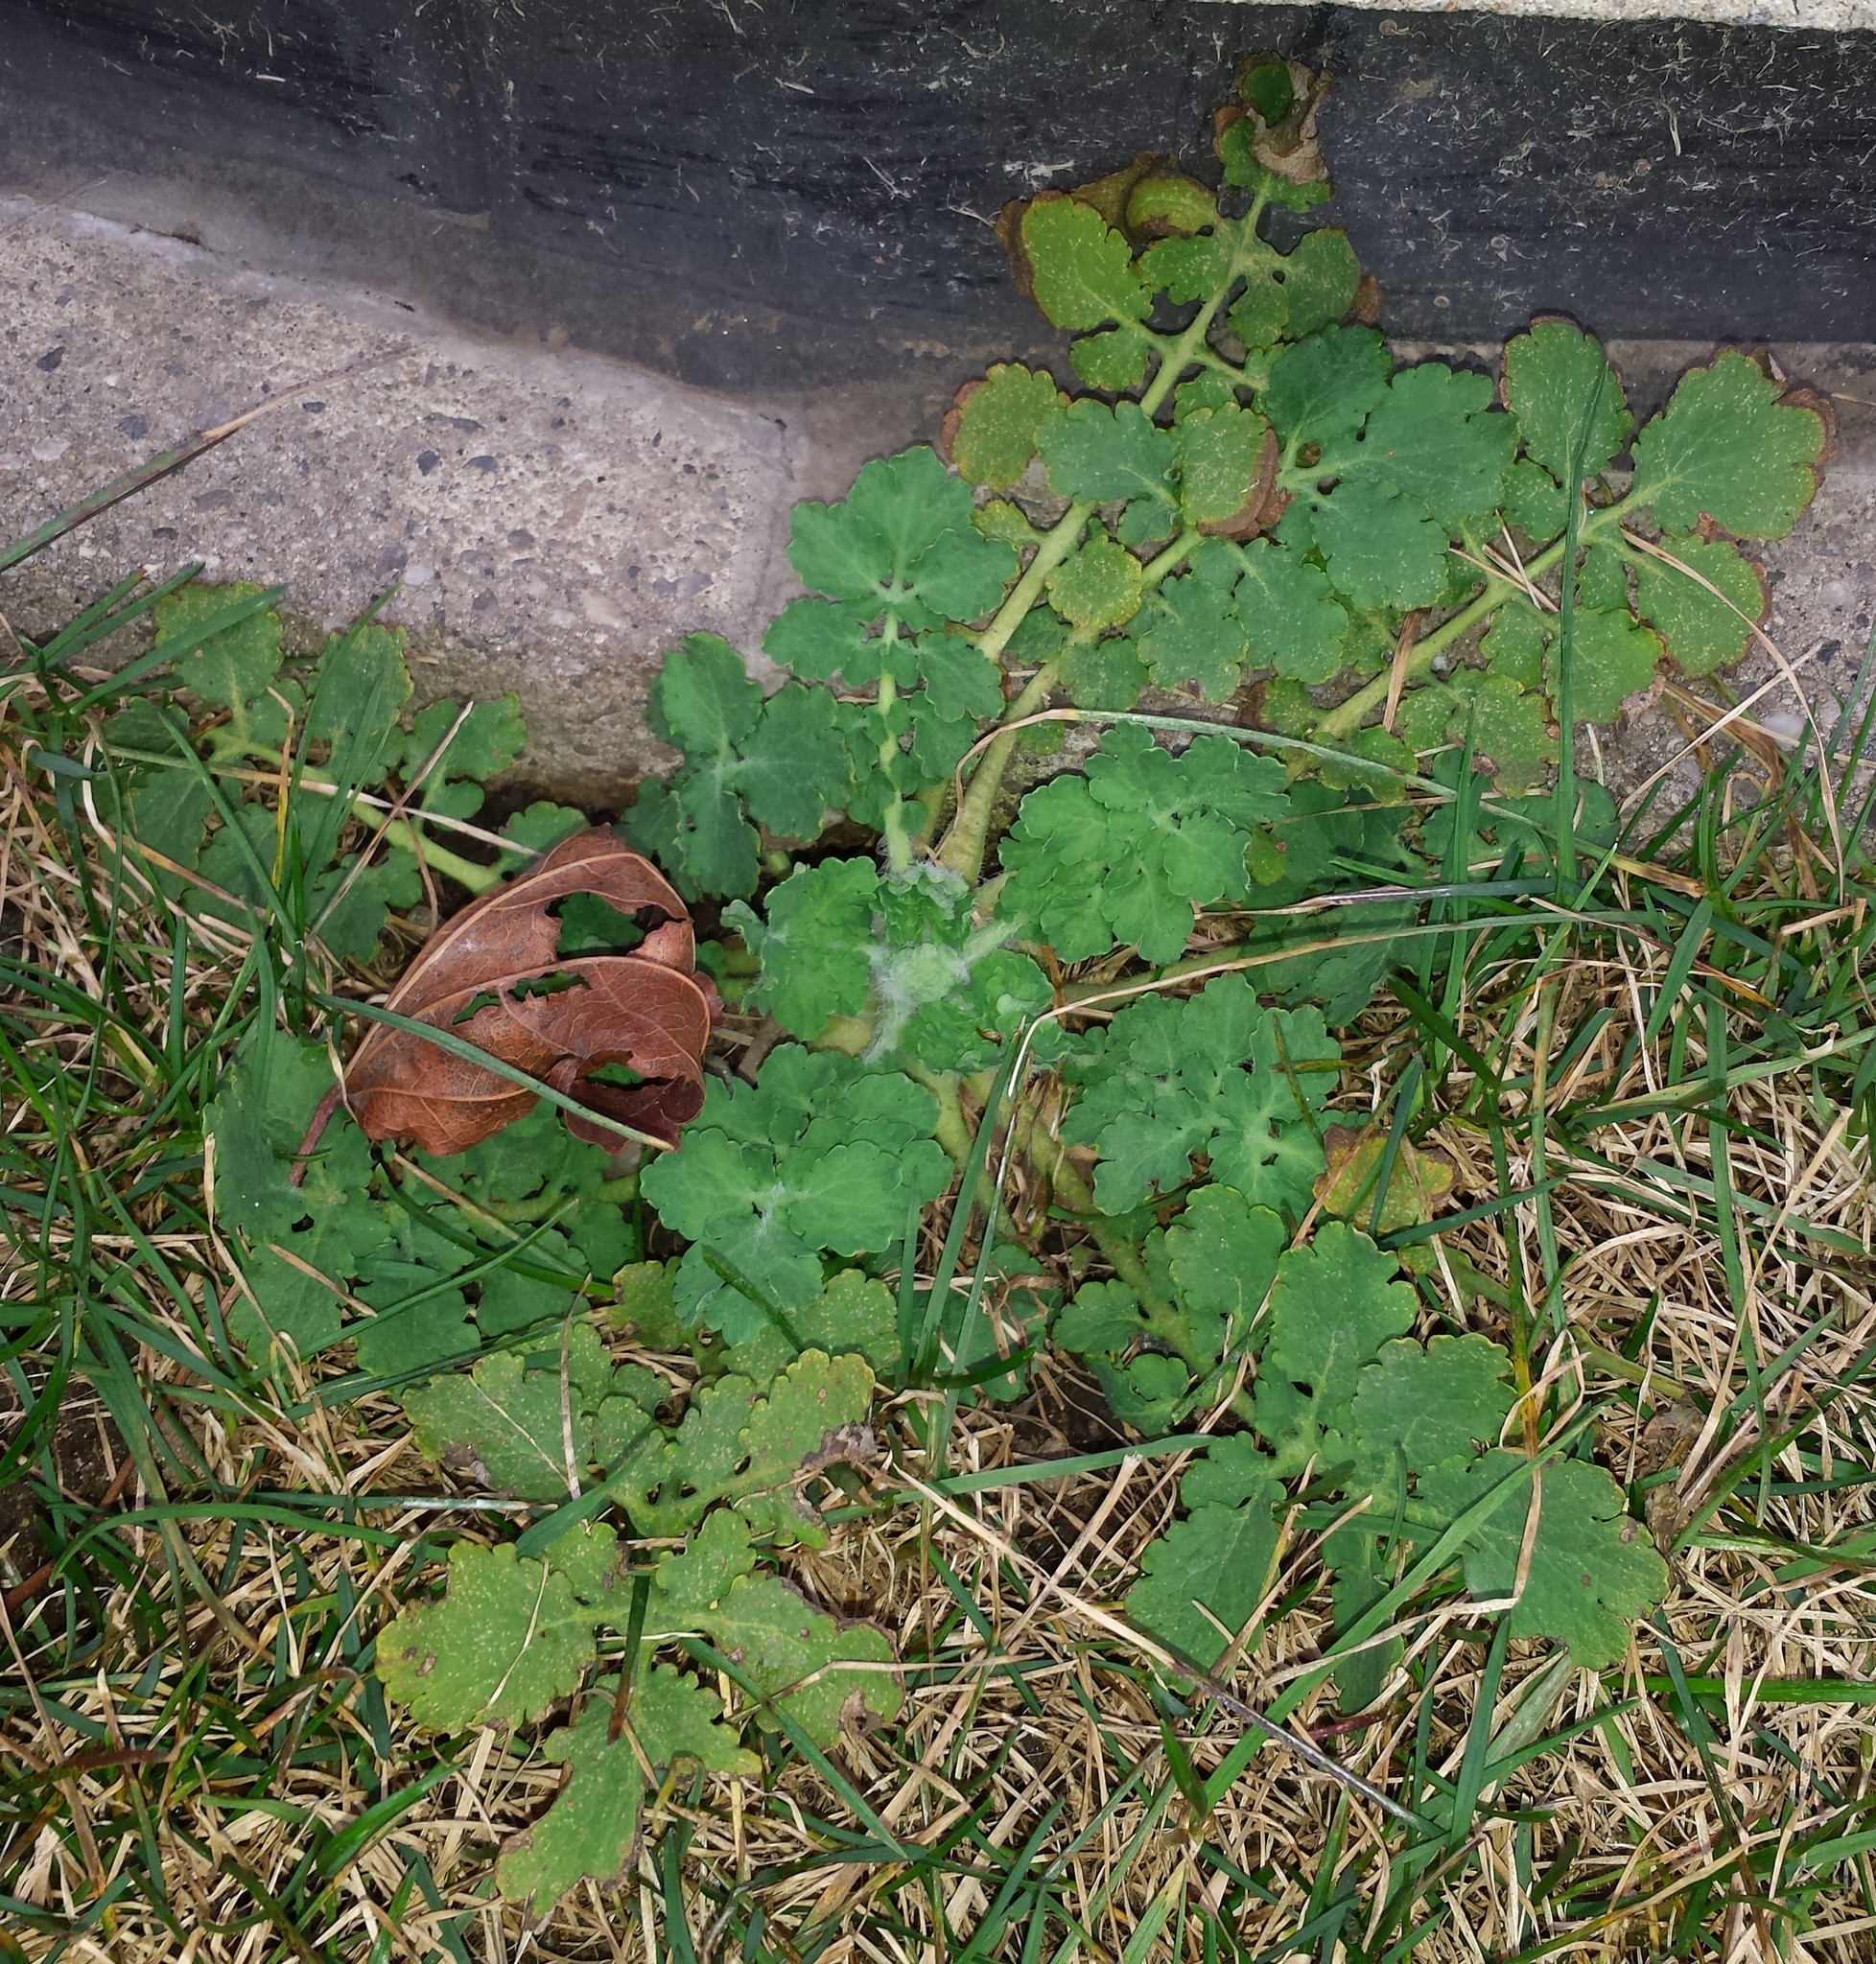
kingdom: Plantae
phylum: Tracheophyta
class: Magnoliopsida
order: Ranunculales
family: Papaveraceae
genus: Chelidonium
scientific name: Chelidonium majus
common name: Greater celandine
